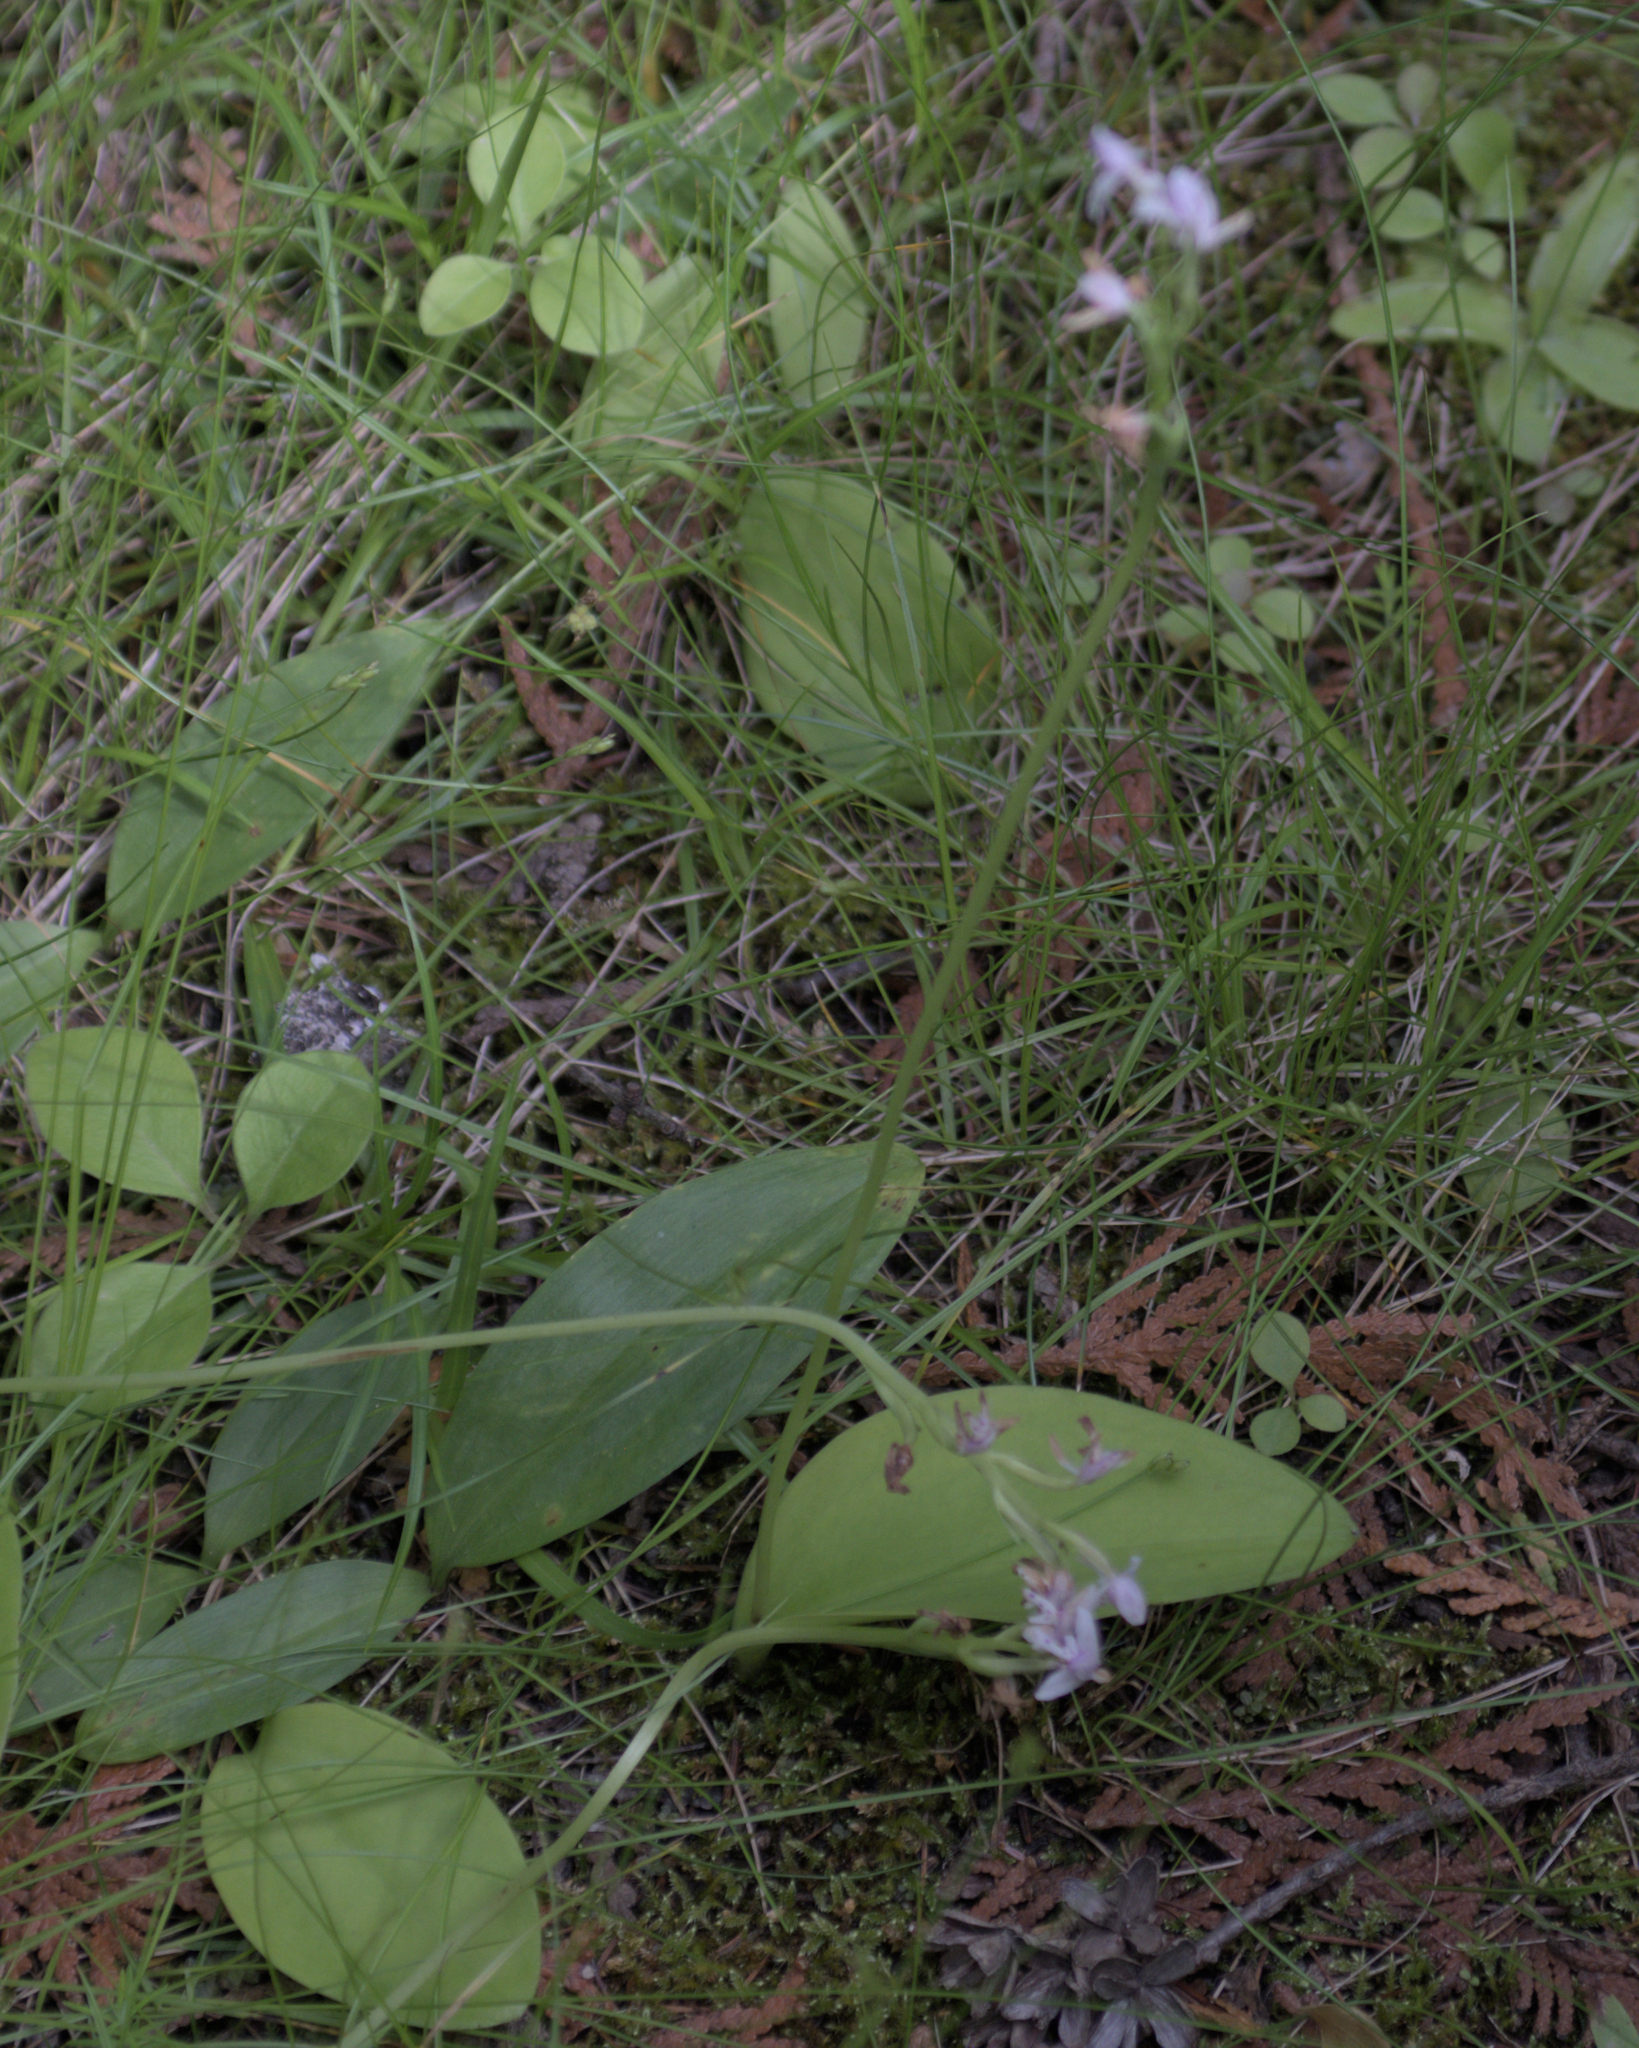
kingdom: Plantae
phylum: Tracheophyta
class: Liliopsida
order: Asparagales
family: Orchidaceae
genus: Galearis
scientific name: Galearis rotundifolia
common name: One-leaved orchis
